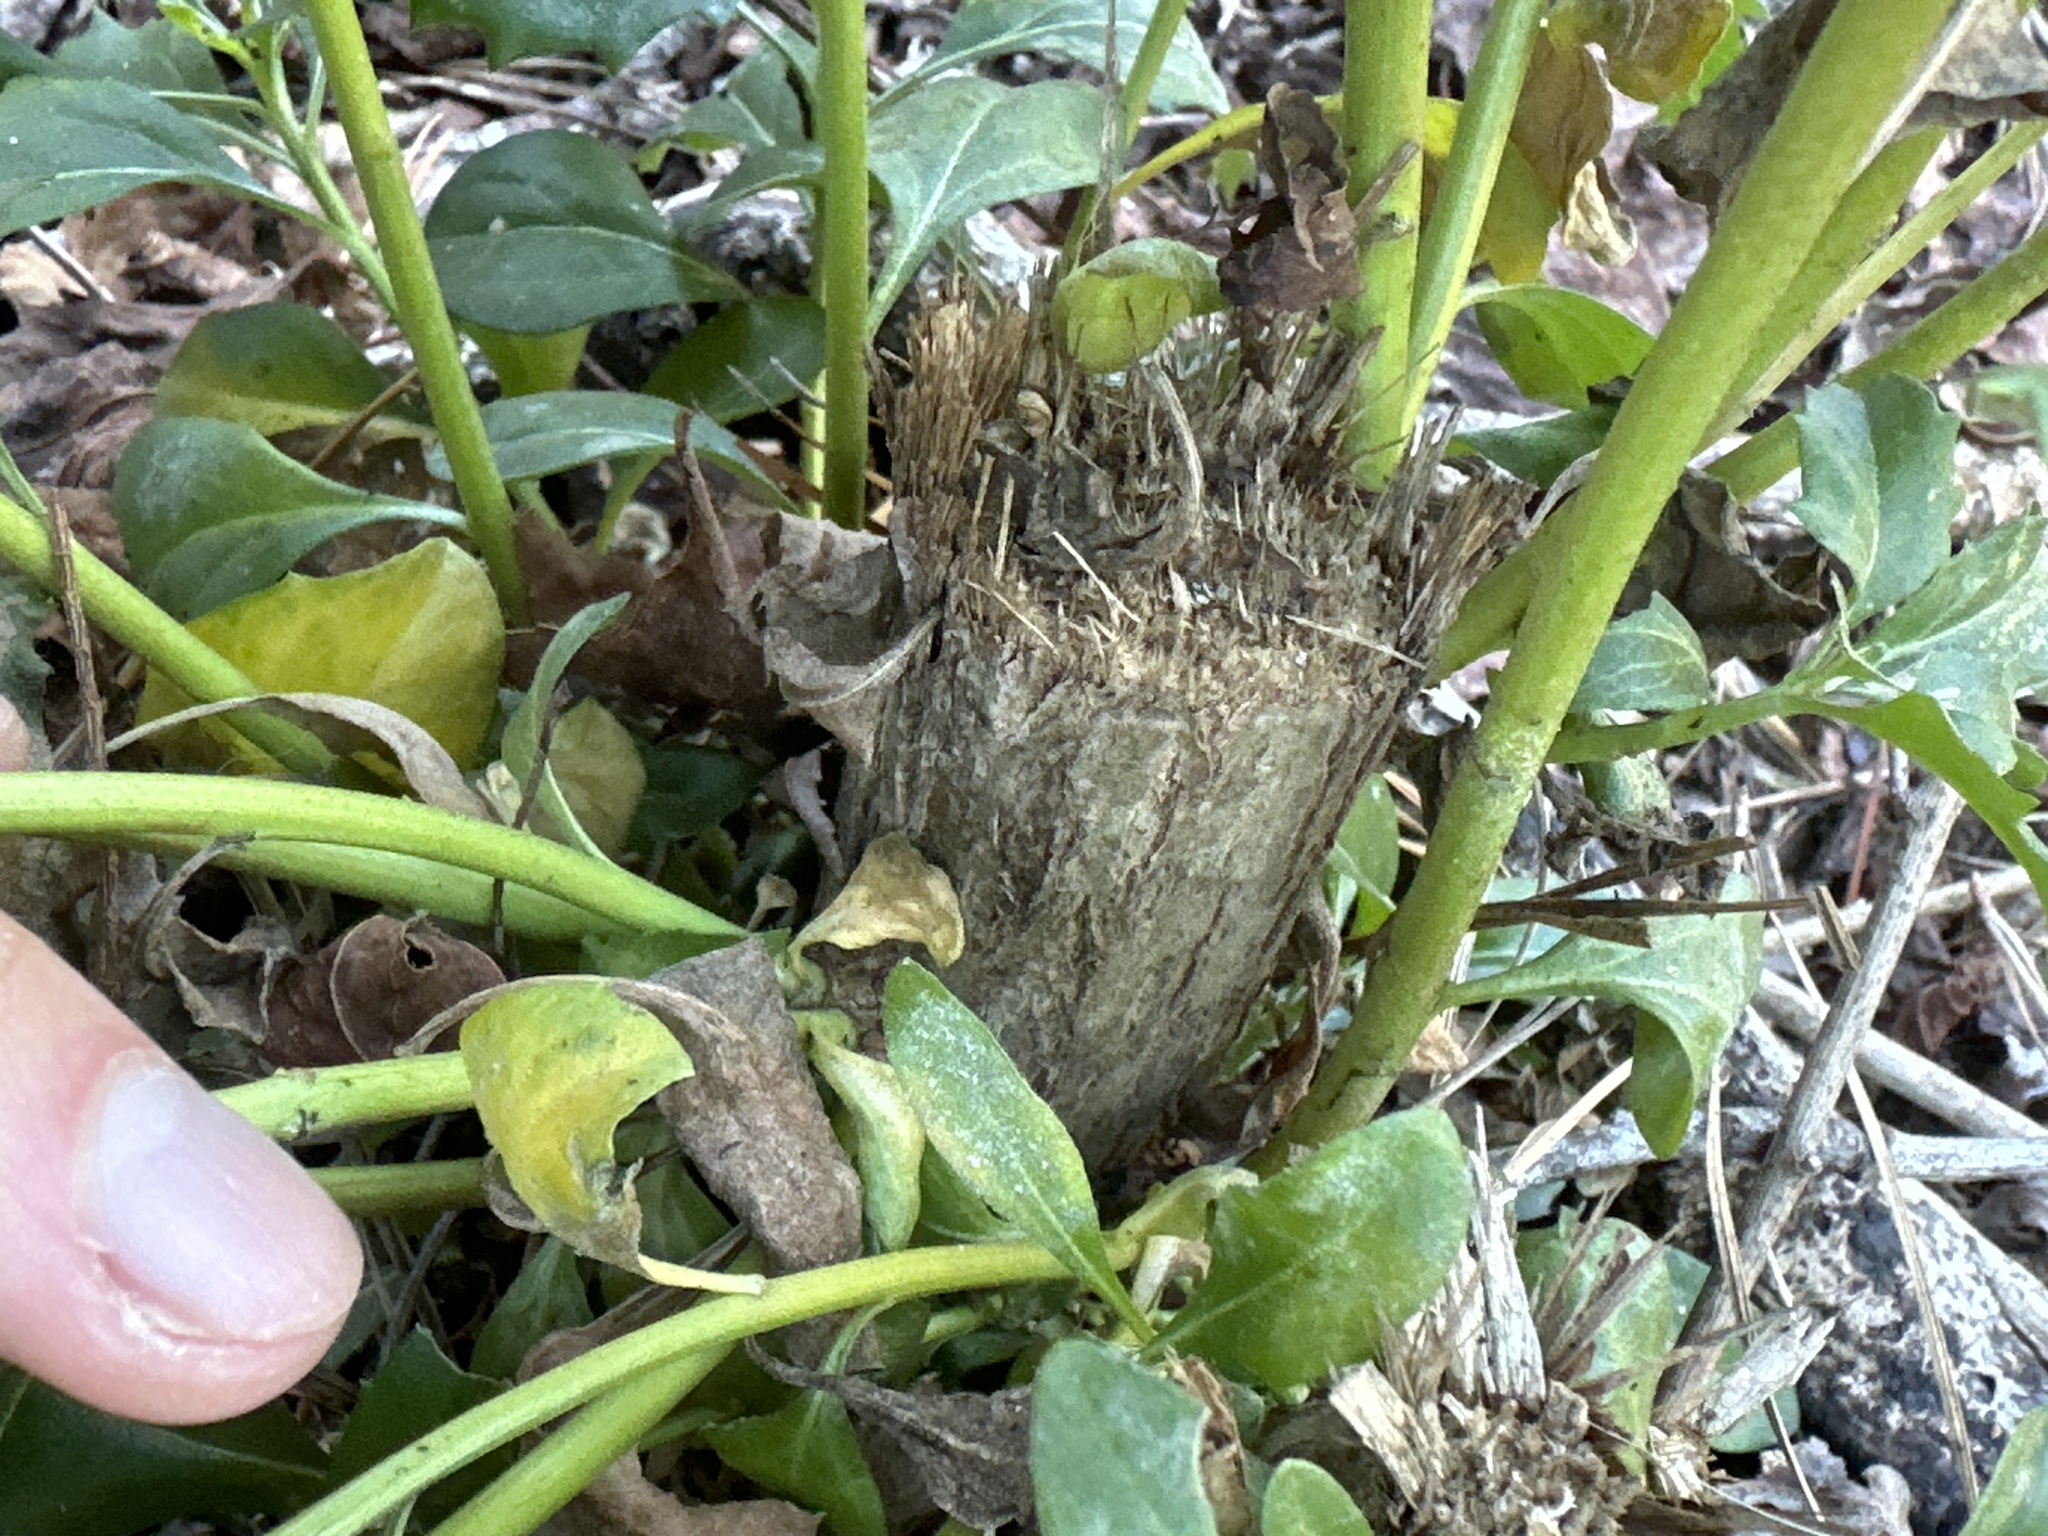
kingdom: Plantae
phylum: Tracheophyta
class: Magnoliopsida
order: Asterales
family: Asteraceae
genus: Baccharis
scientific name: Baccharis halimifolia
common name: Eastern baccharis
